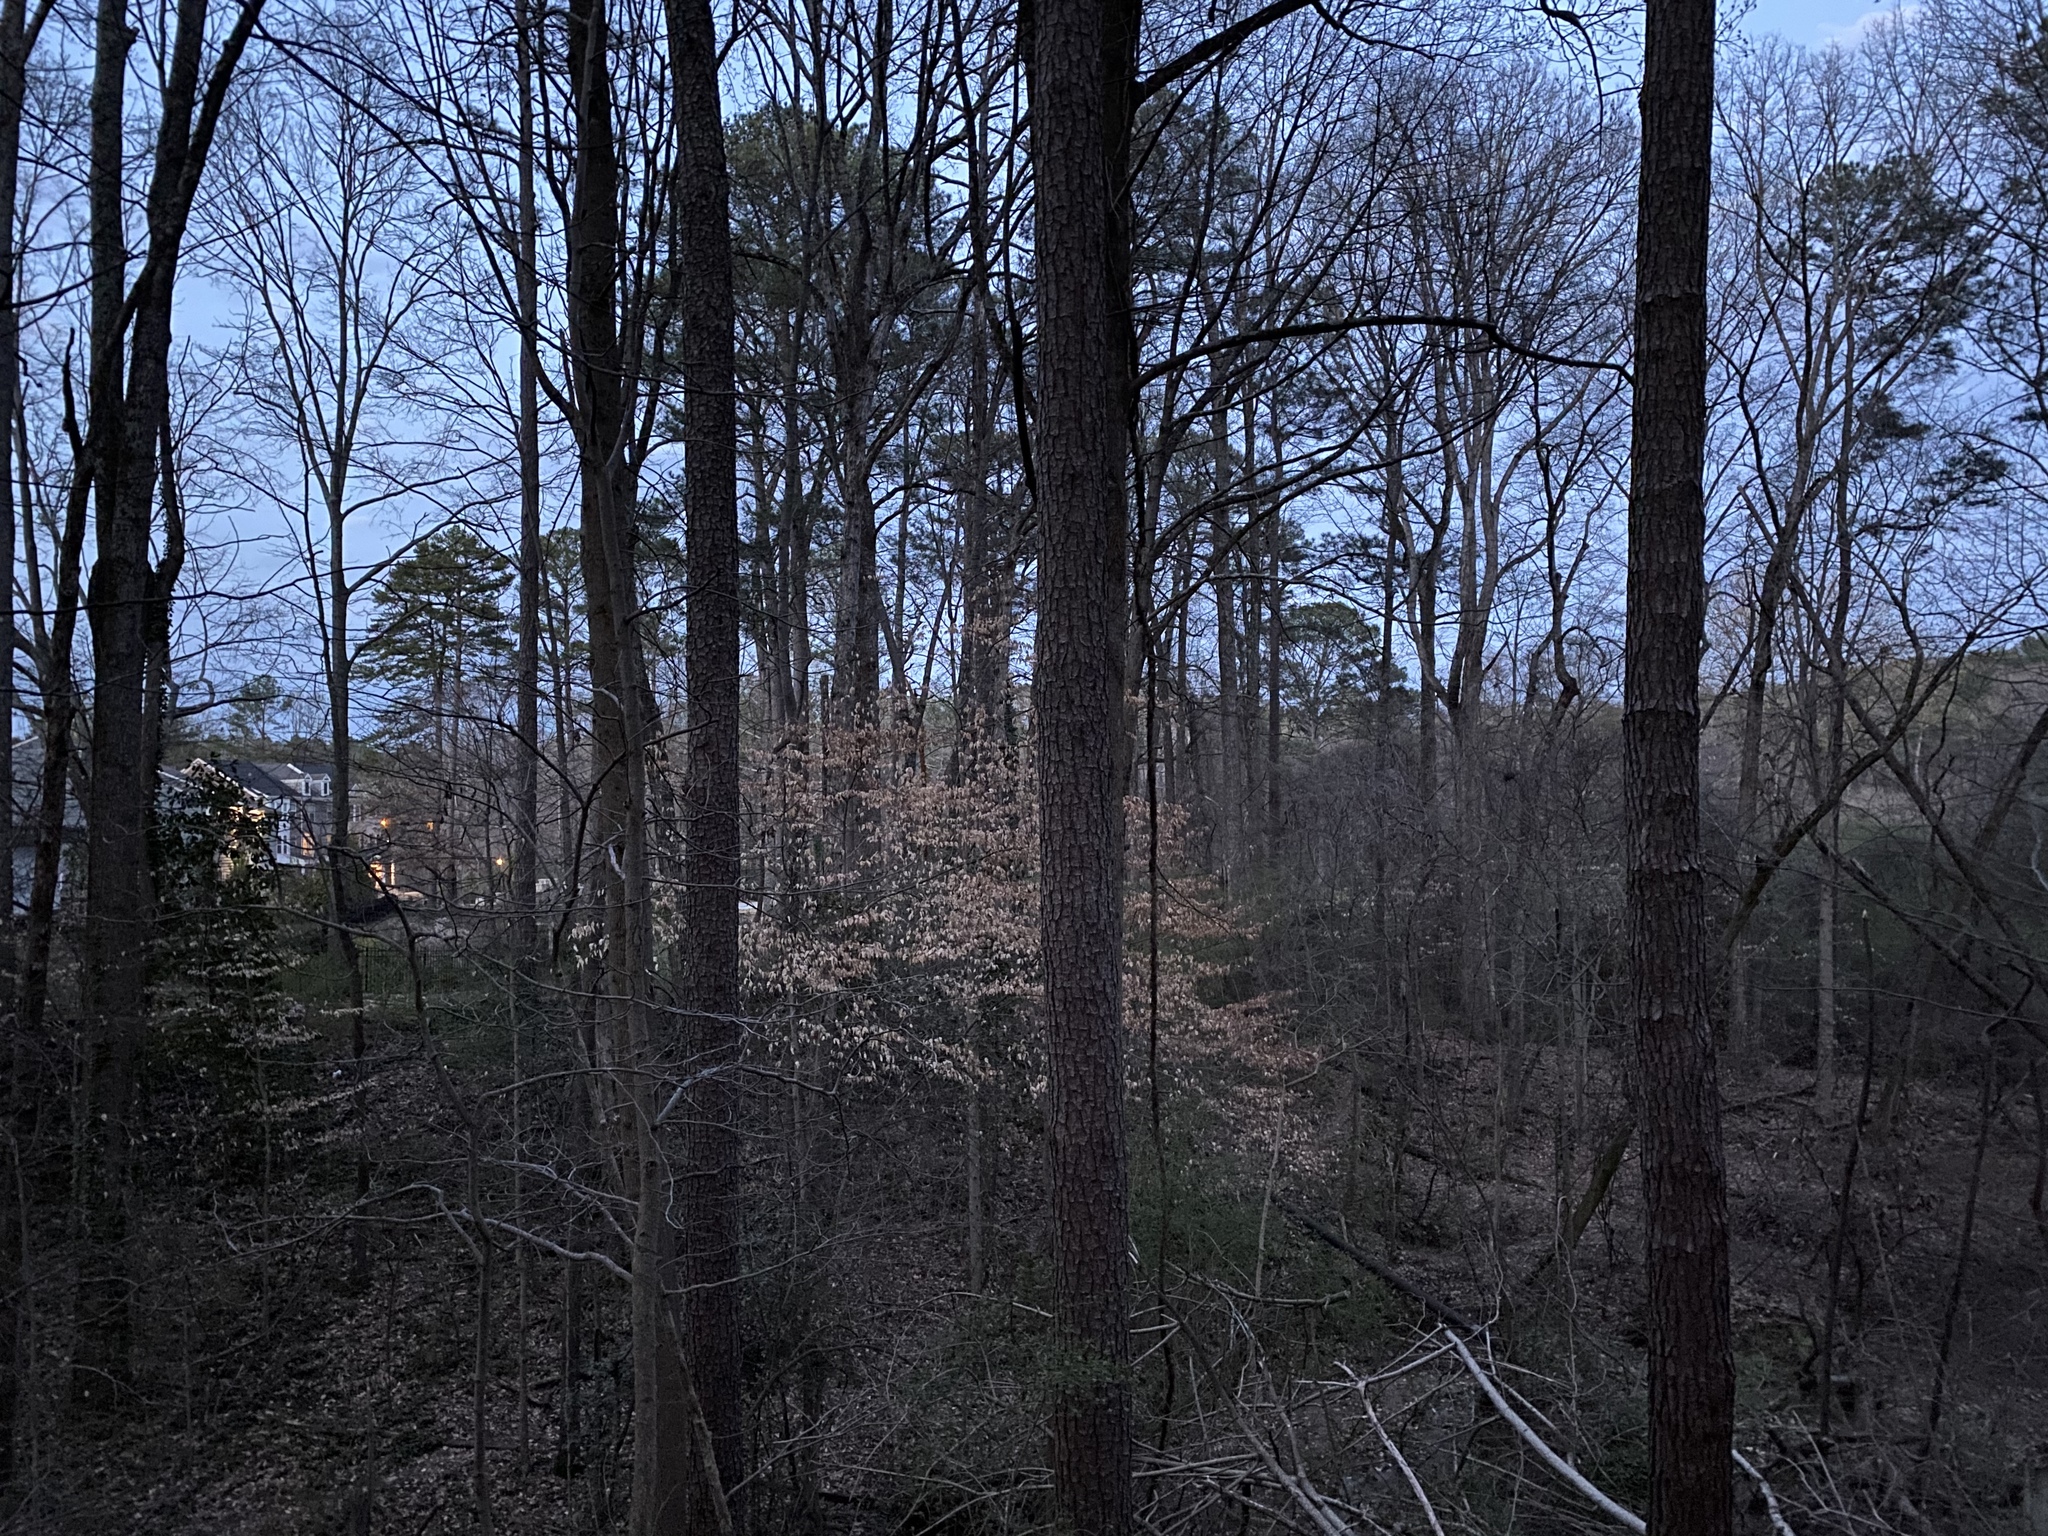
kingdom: Animalia
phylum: Chordata
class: Amphibia
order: Anura
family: Hylidae
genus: Pseudacris
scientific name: Pseudacris crucifer
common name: Spring peeper
